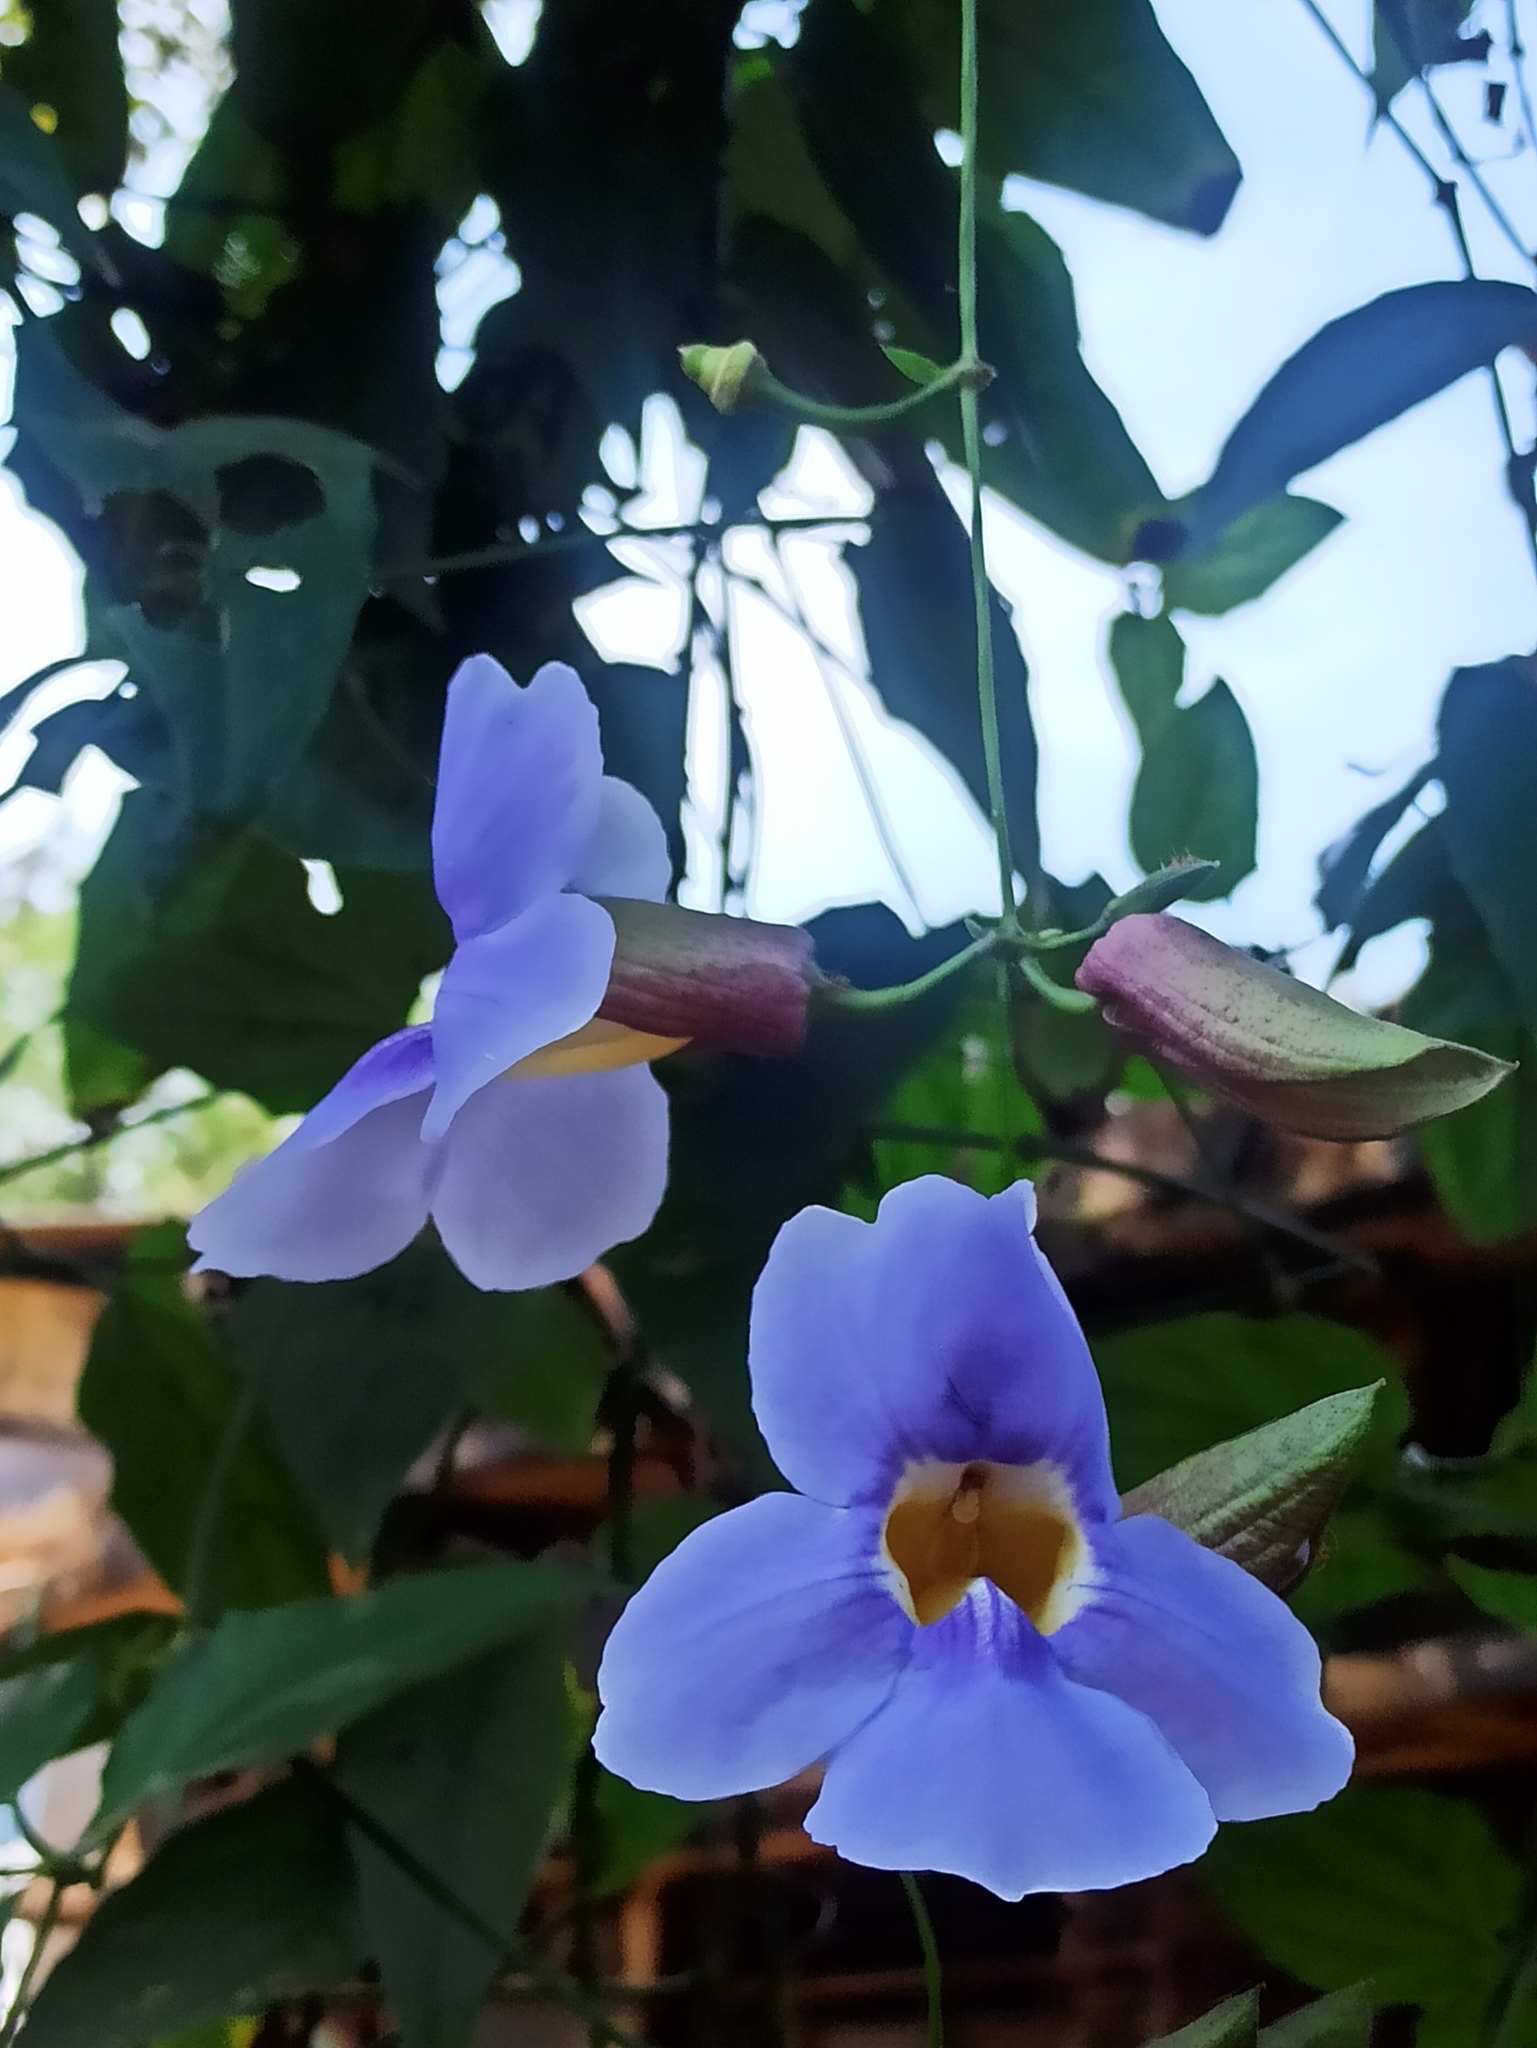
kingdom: Plantae
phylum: Tracheophyta
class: Magnoliopsida
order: Lamiales
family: Acanthaceae
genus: Thunbergia
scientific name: Thunbergia grandiflora
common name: Bengal trumpet
